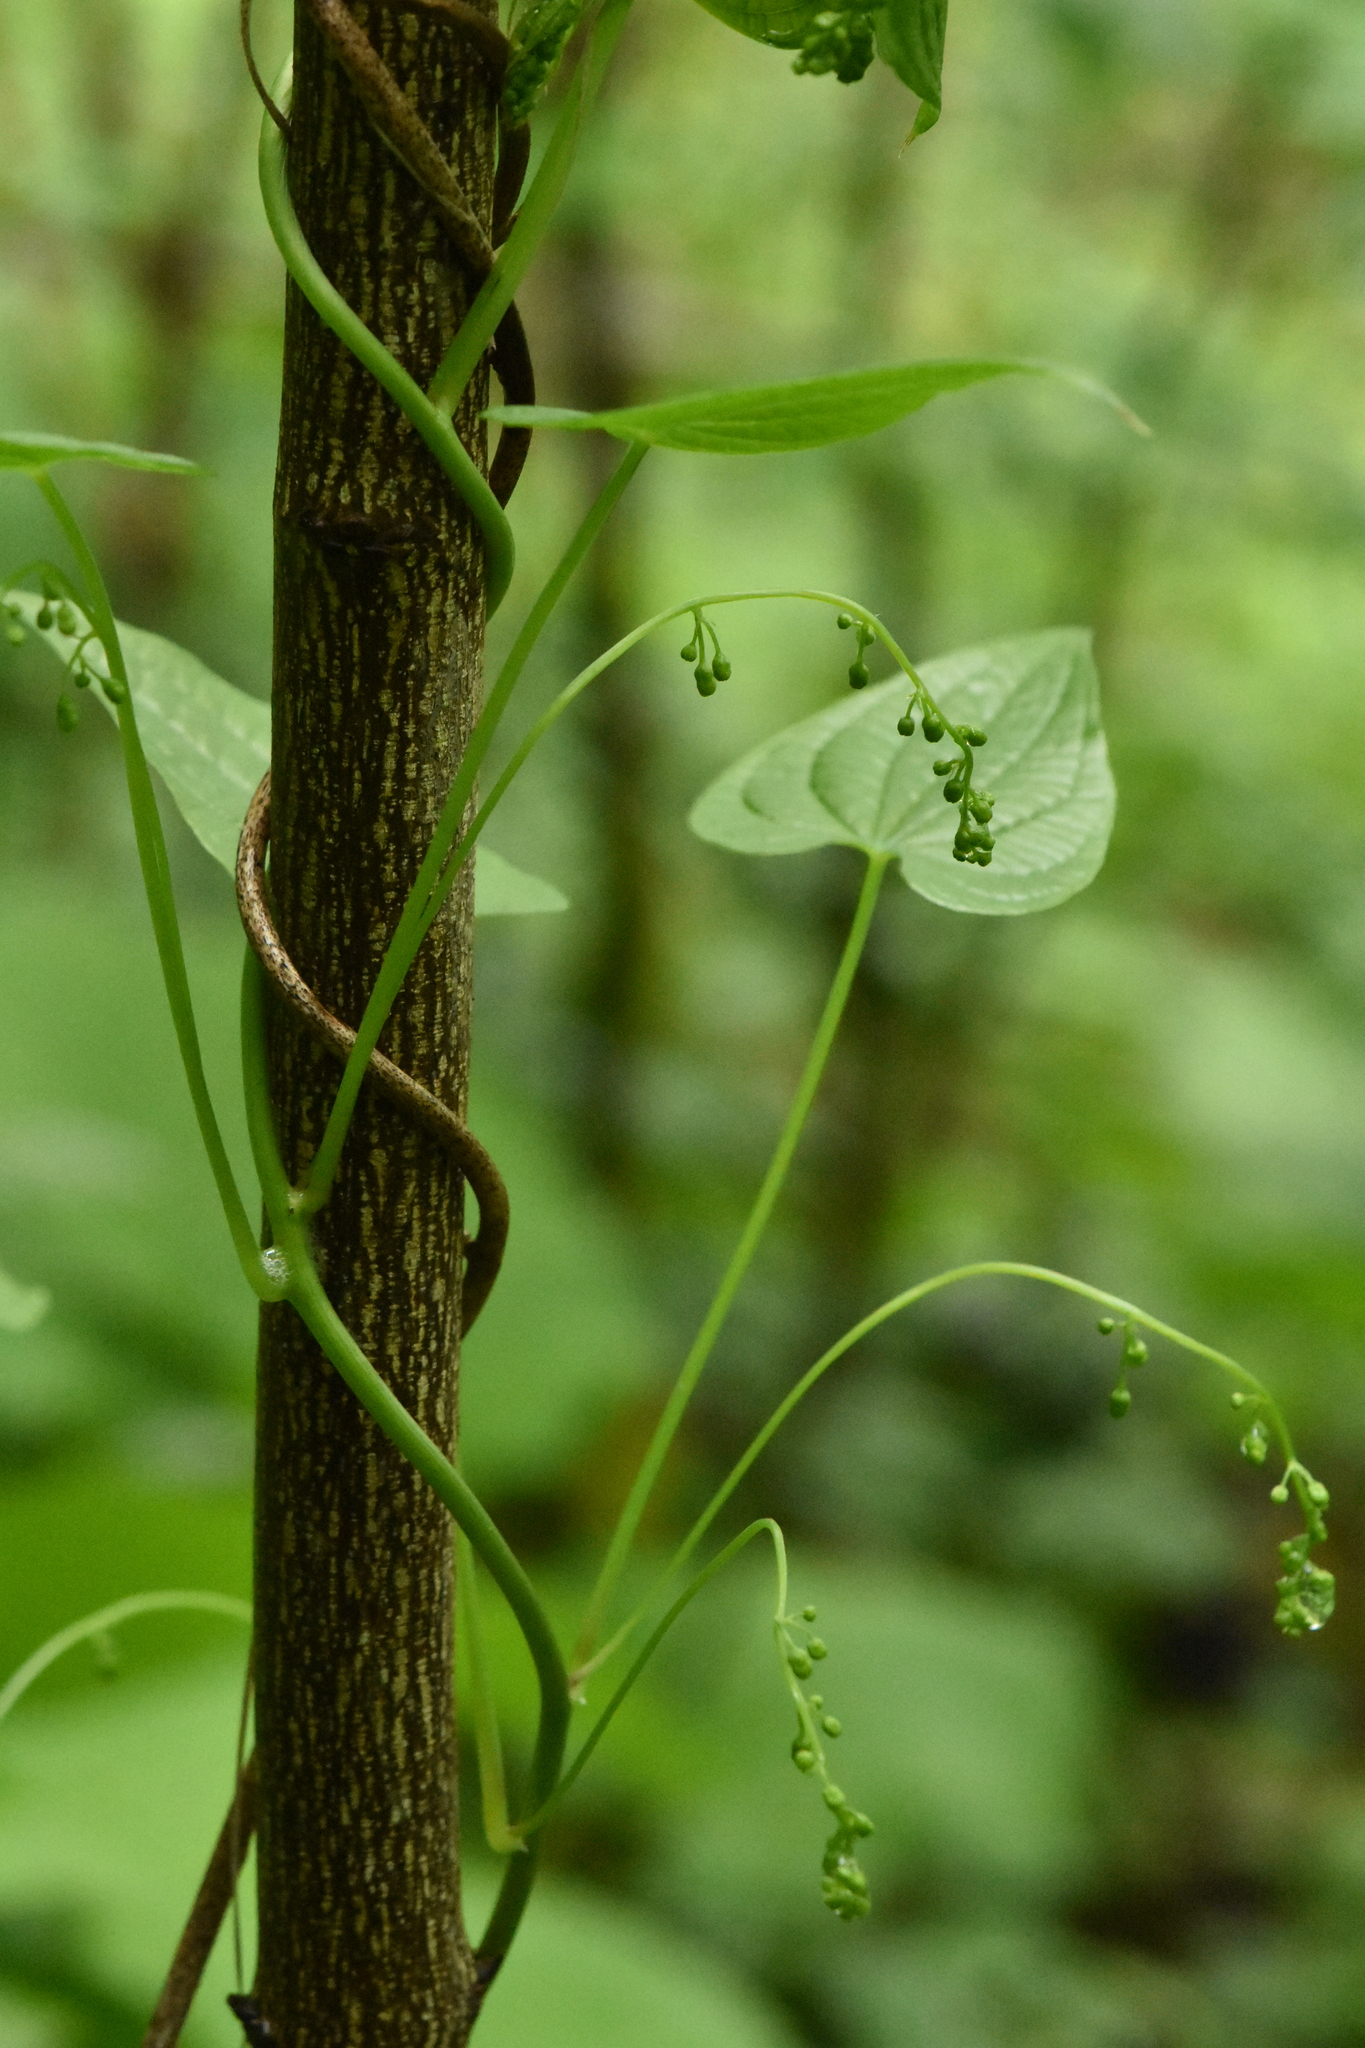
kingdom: Plantae
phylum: Tracheophyta
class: Liliopsida
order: Dioscoreales
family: Dioscoreaceae
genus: Dioscorea
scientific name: Dioscorea communis
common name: Black-bindweed
